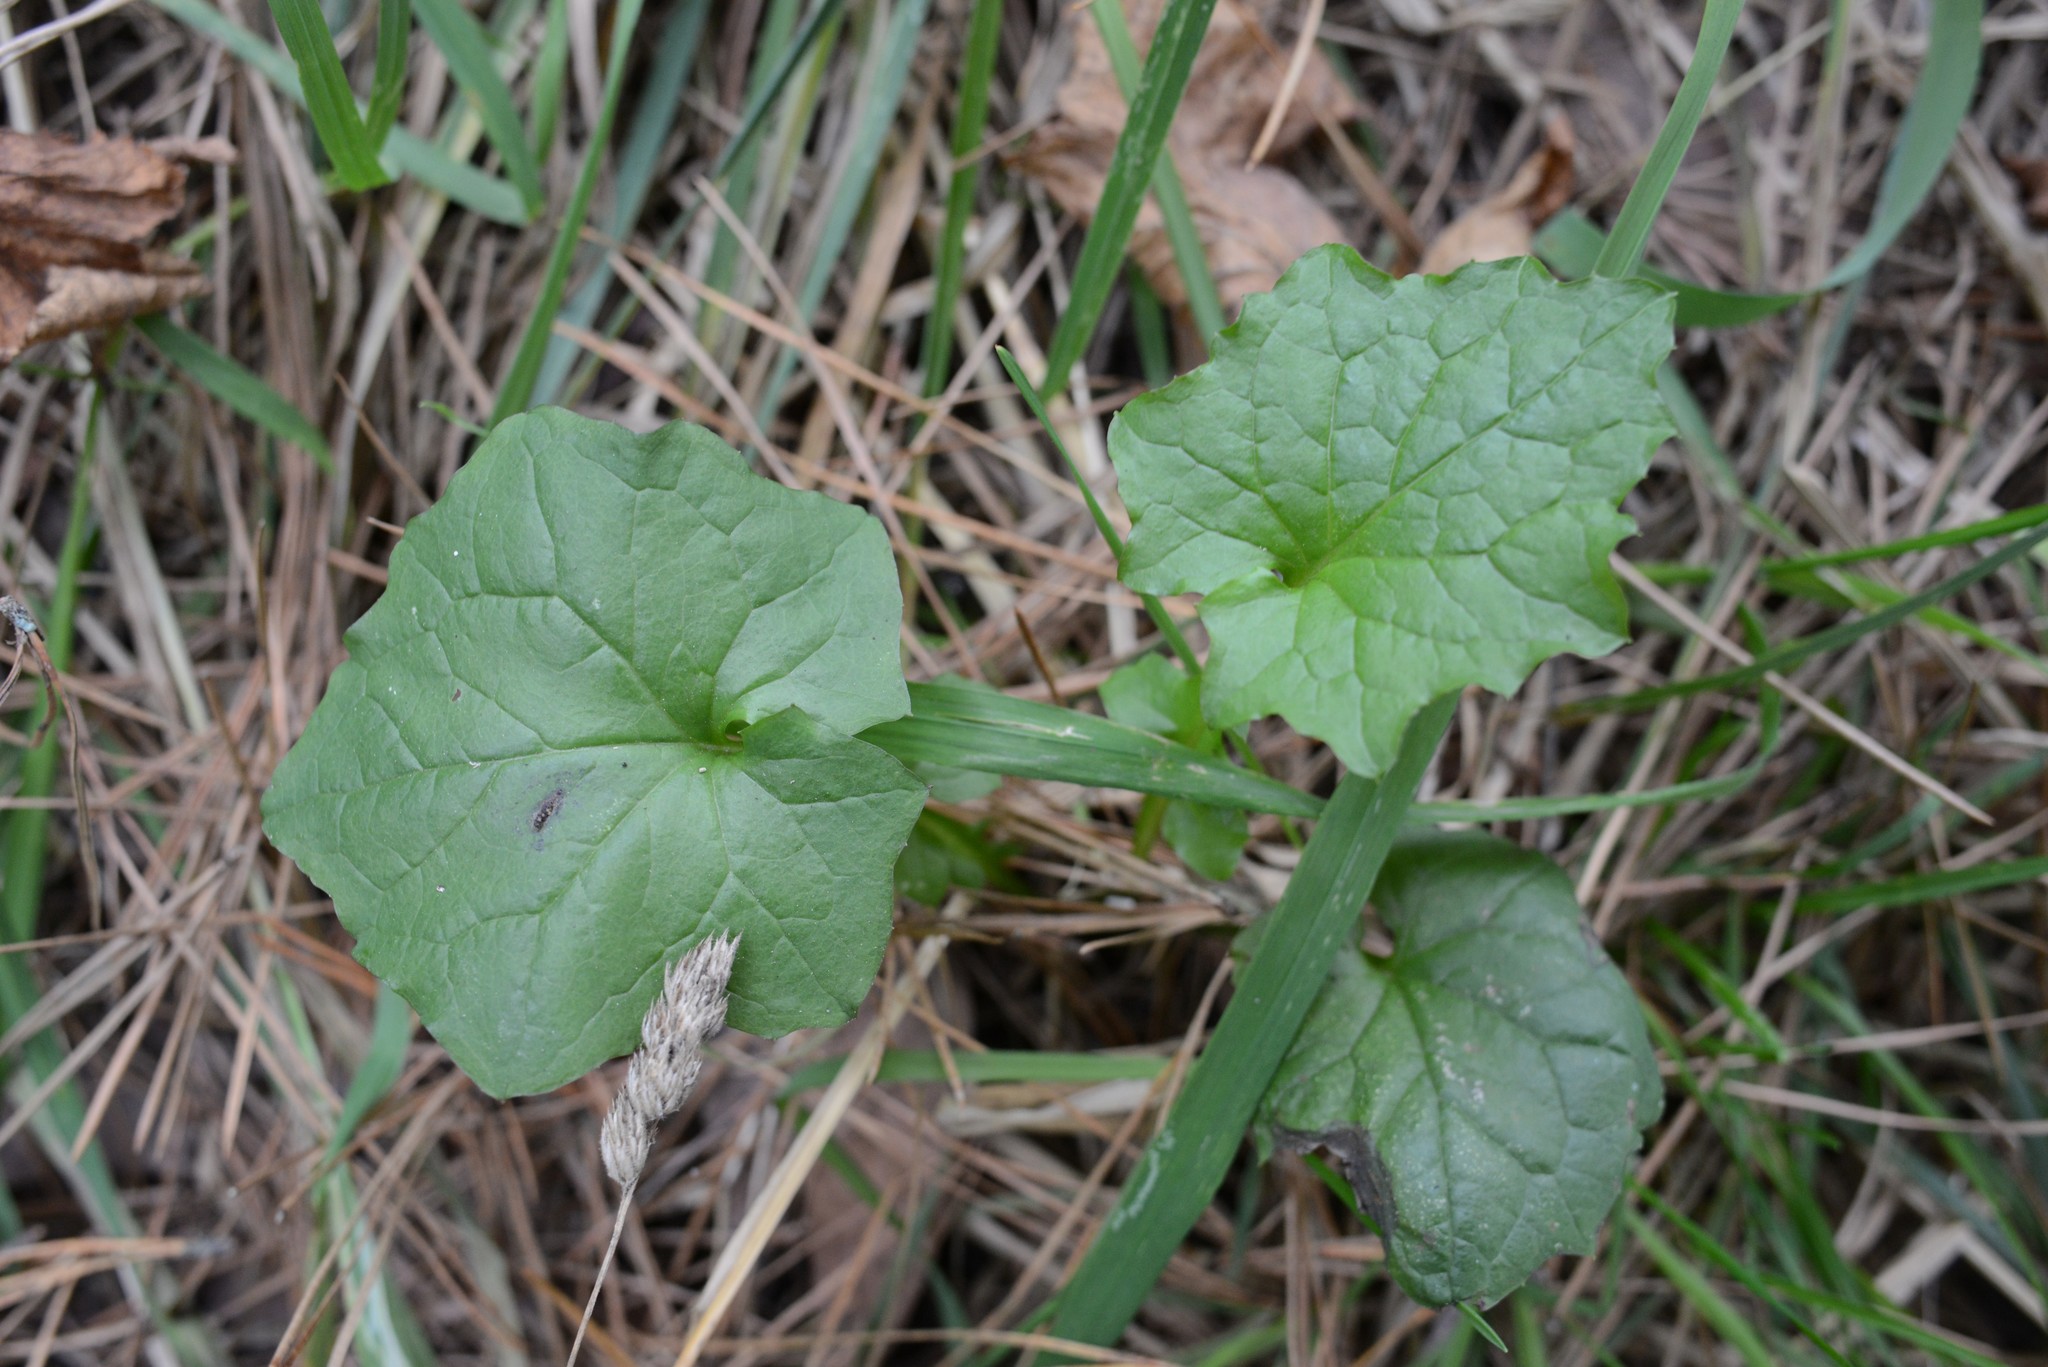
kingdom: Plantae
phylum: Tracheophyta
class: Magnoliopsida
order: Asterales
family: Asteraceae
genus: Mycelis
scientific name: Mycelis muralis
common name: Wall lettuce
